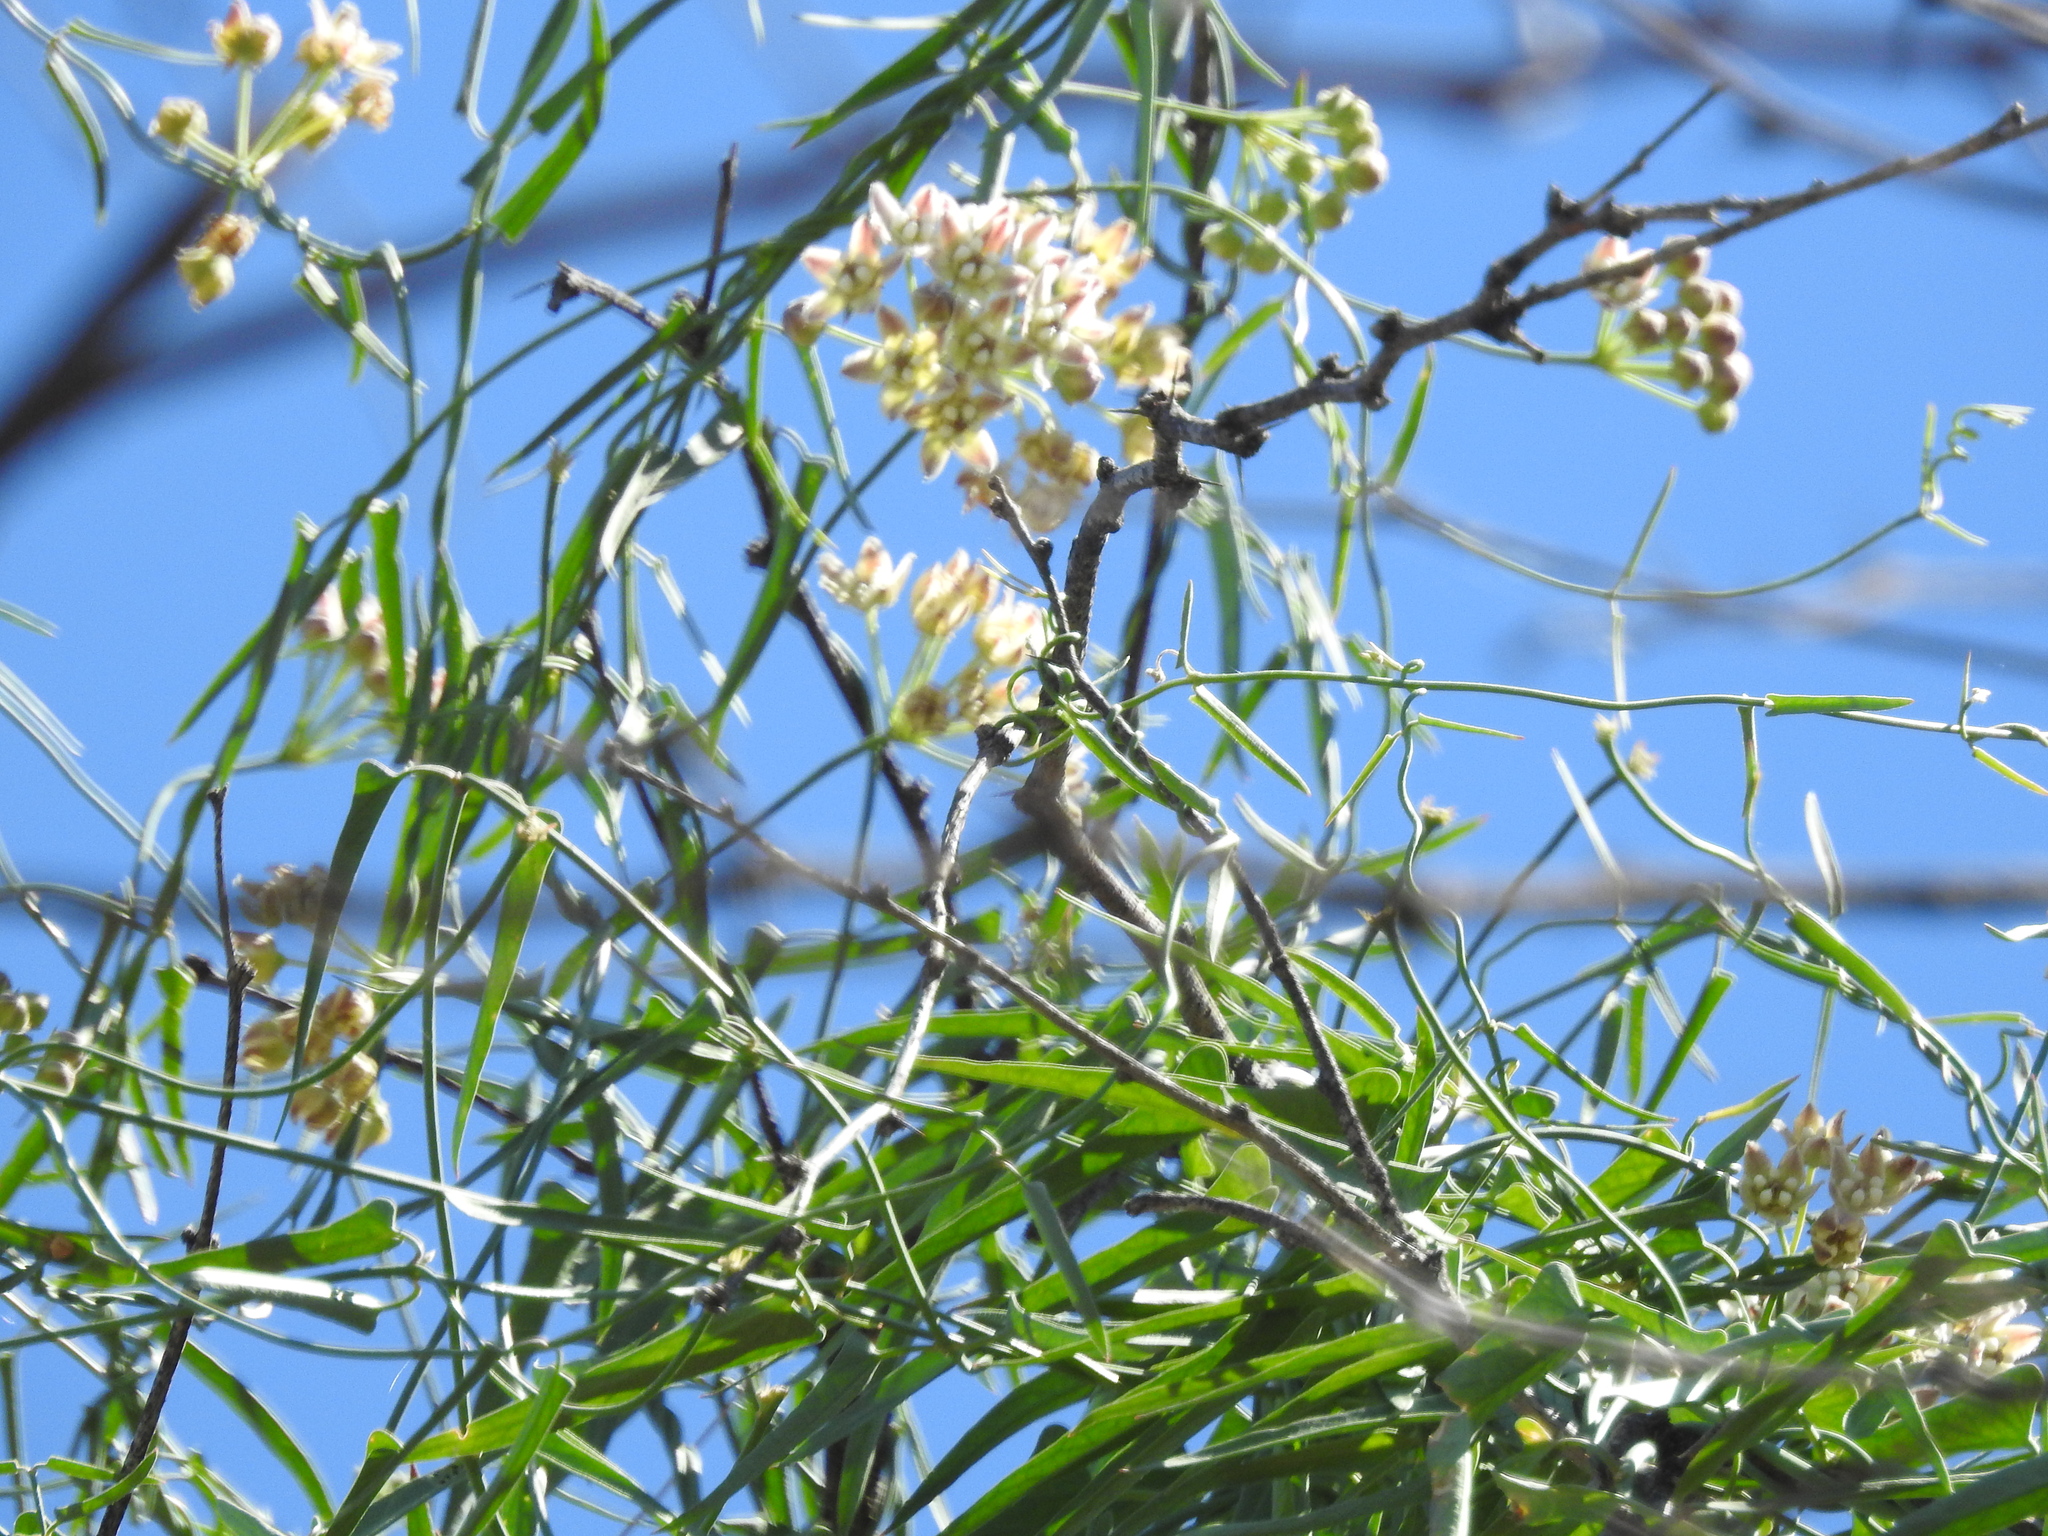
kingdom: Plantae
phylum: Tracheophyta
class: Magnoliopsida
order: Gentianales
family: Apocynaceae
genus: Funastrum
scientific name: Funastrum heterophyllum
